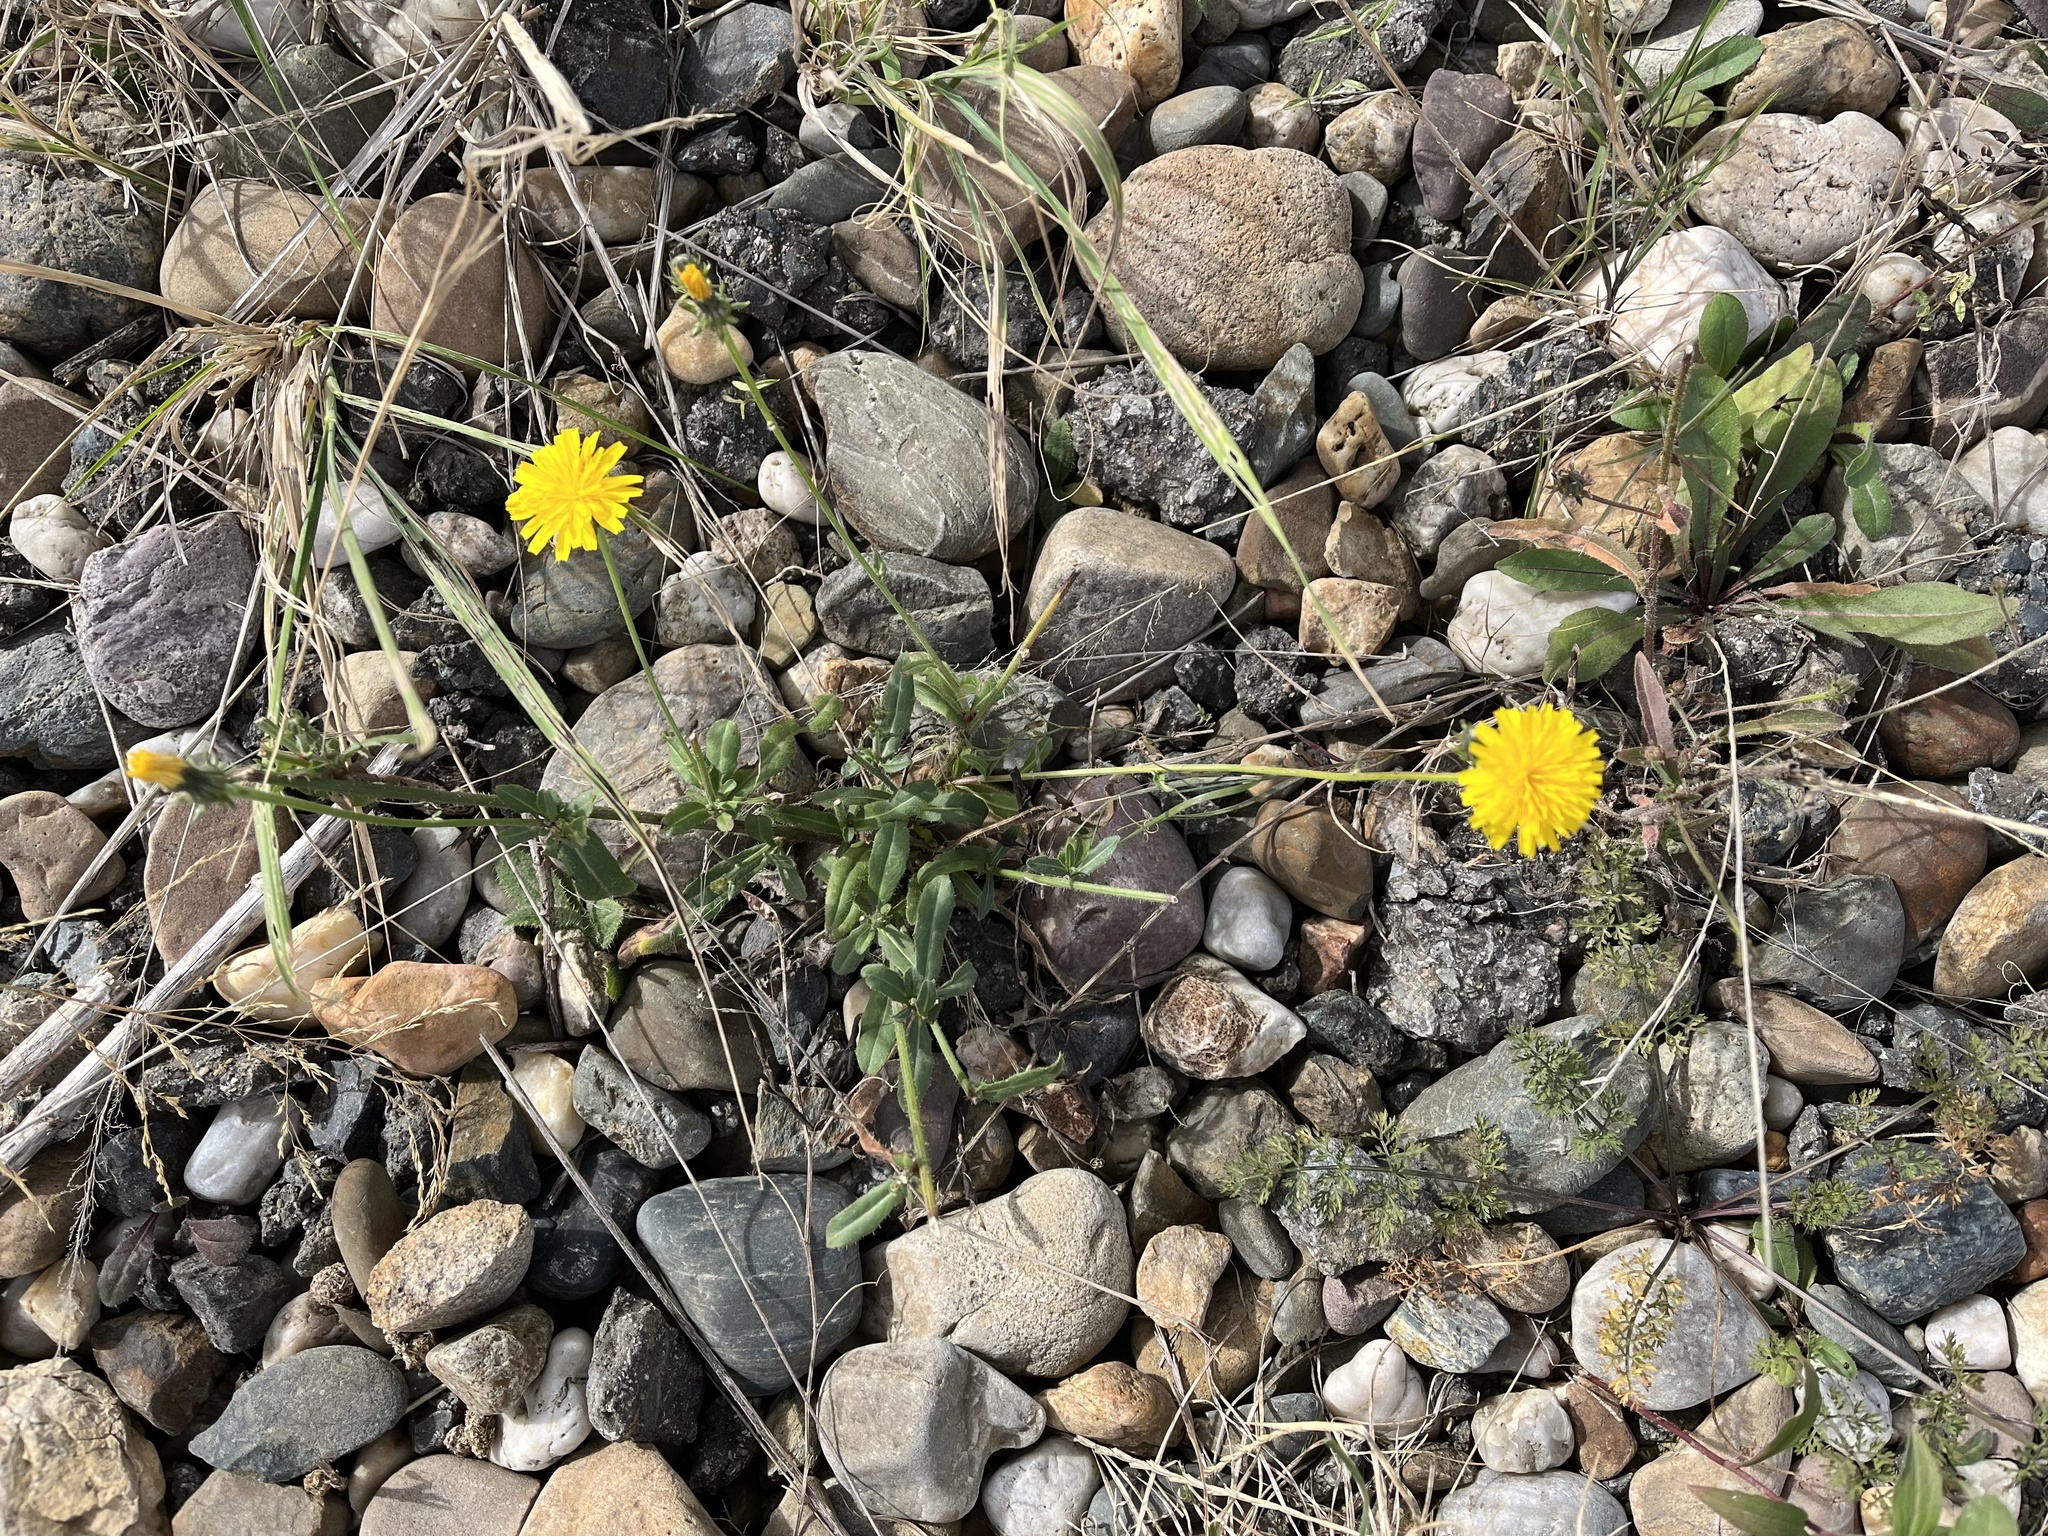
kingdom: Plantae
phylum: Tracheophyta
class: Magnoliopsida
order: Asterales
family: Asteraceae
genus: Picris
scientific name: Picris hieracioides
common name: Hawkweed oxtongue
